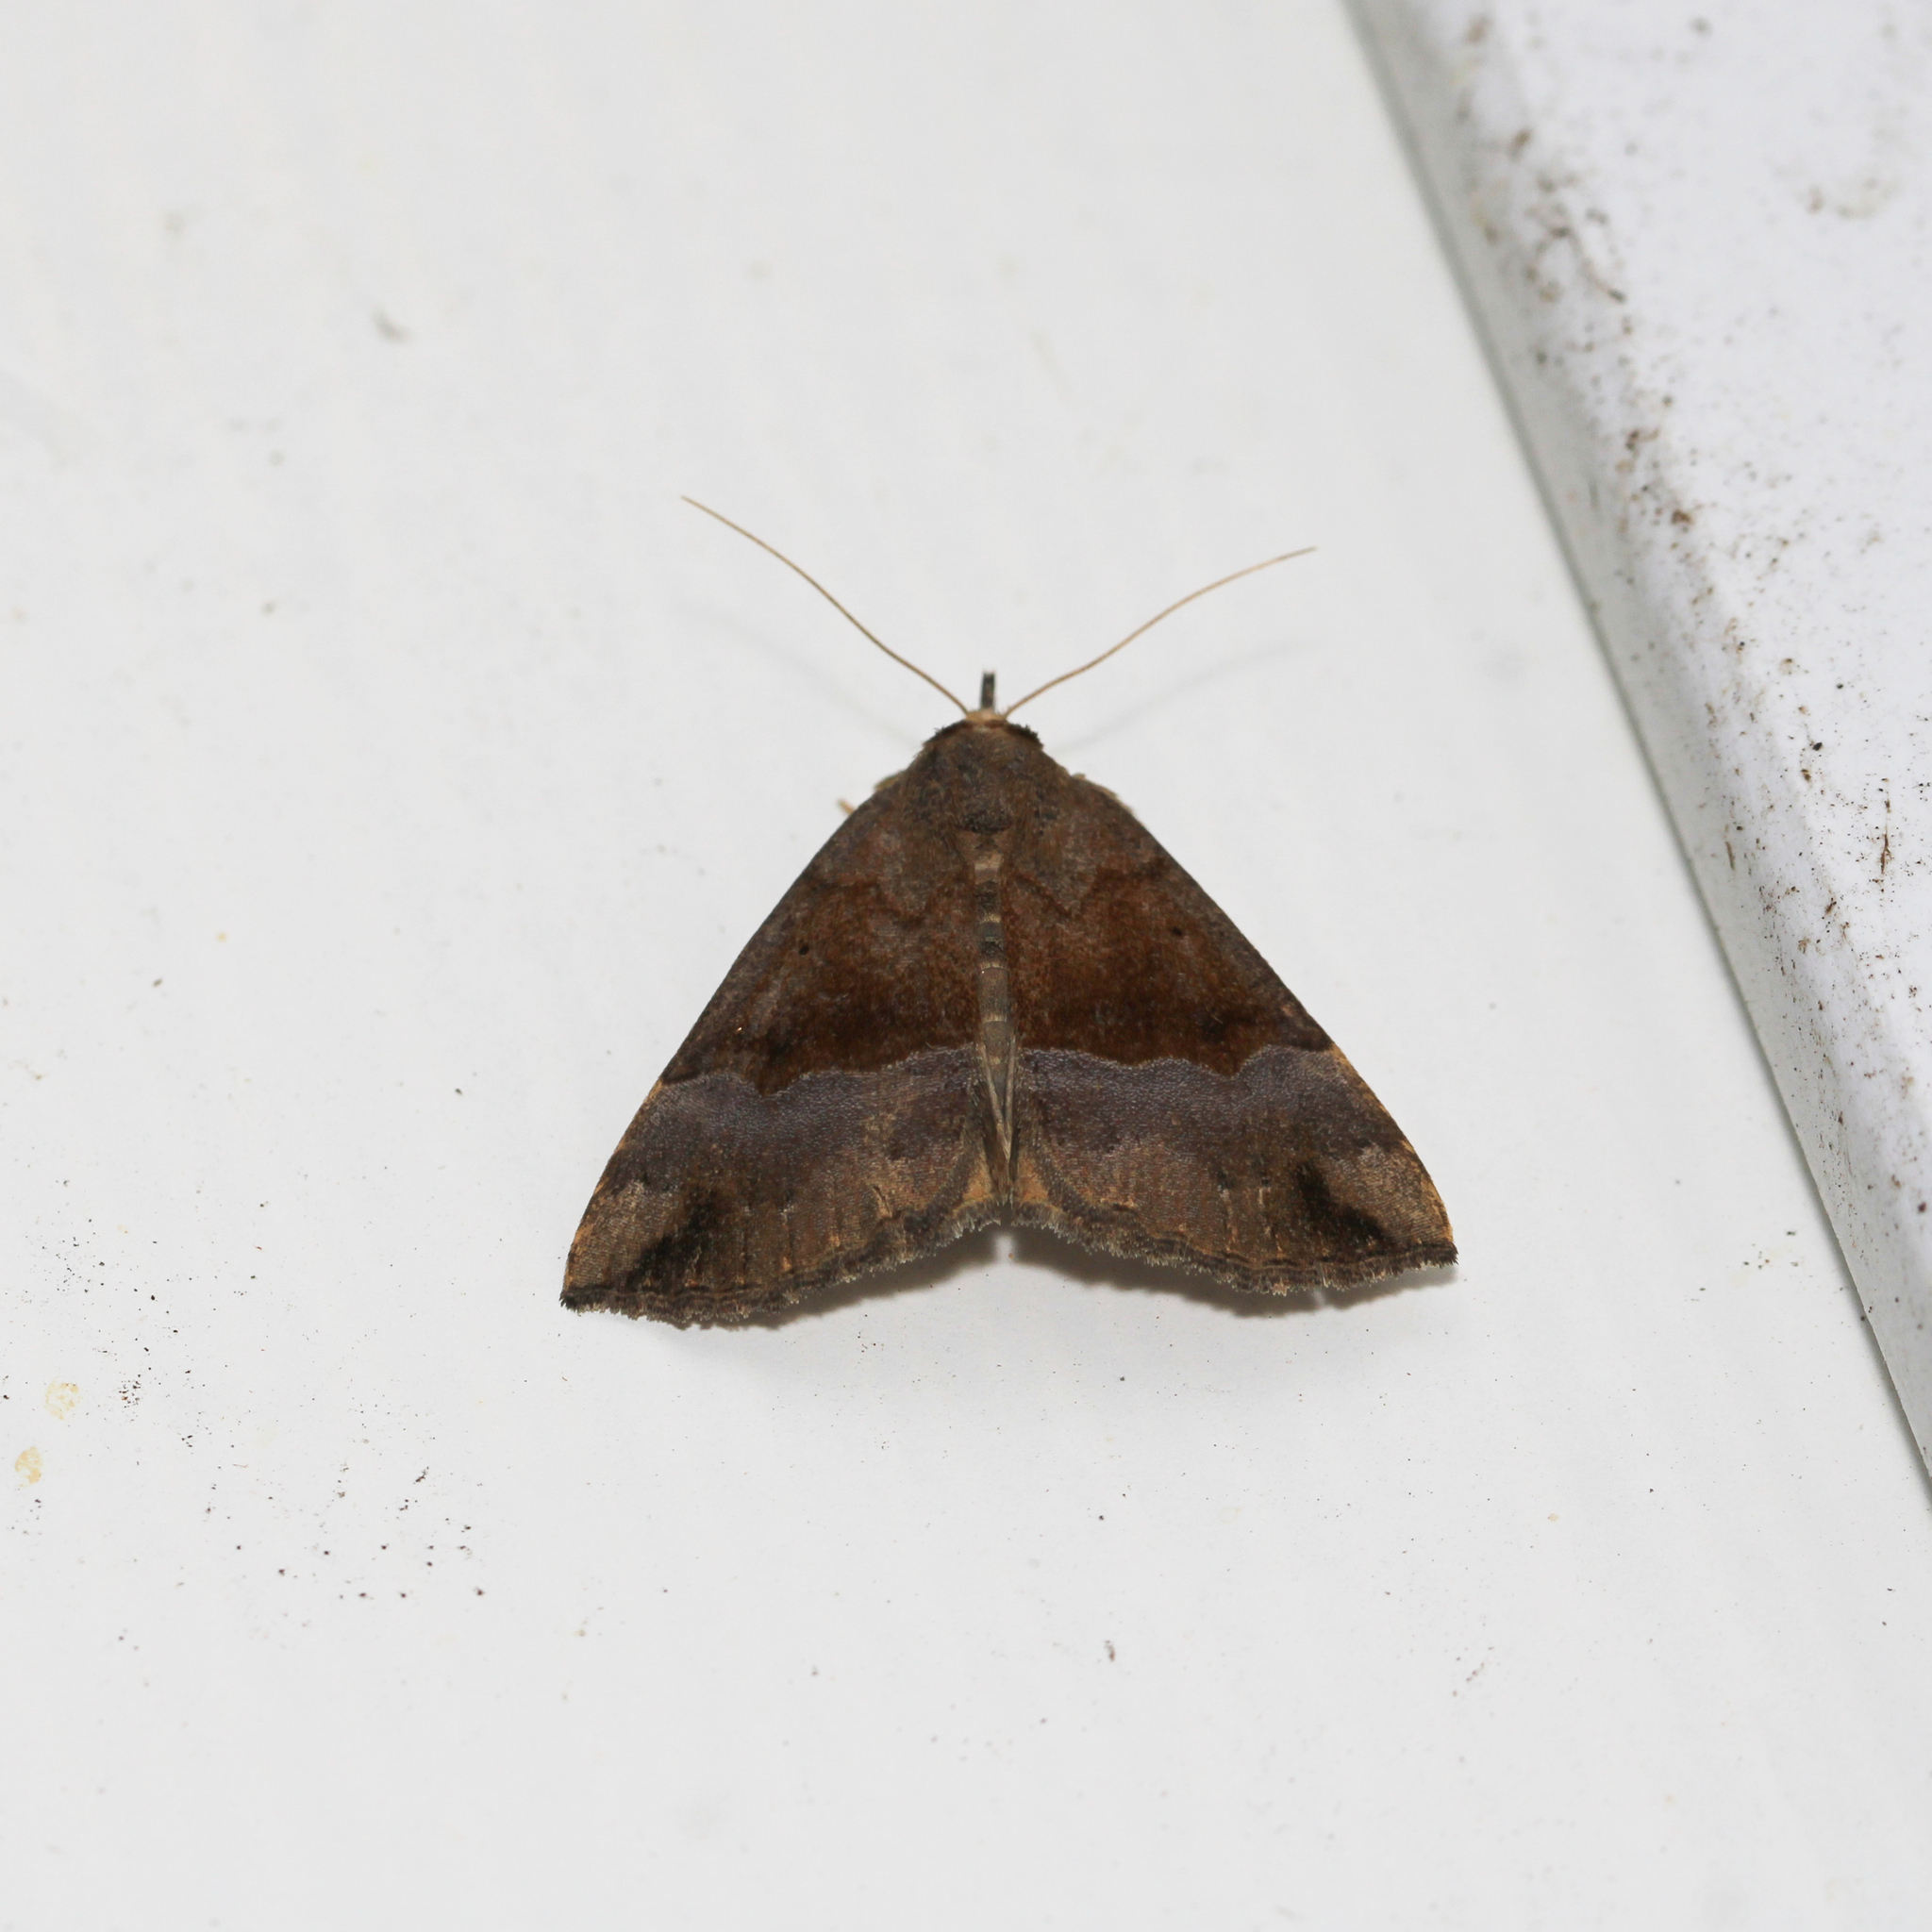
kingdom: Animalia
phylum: Arthropoda
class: Insecta
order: Lepidoptera
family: Erebidae
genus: Hypena
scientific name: Hypena madefactalis
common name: Gray-edged snout
